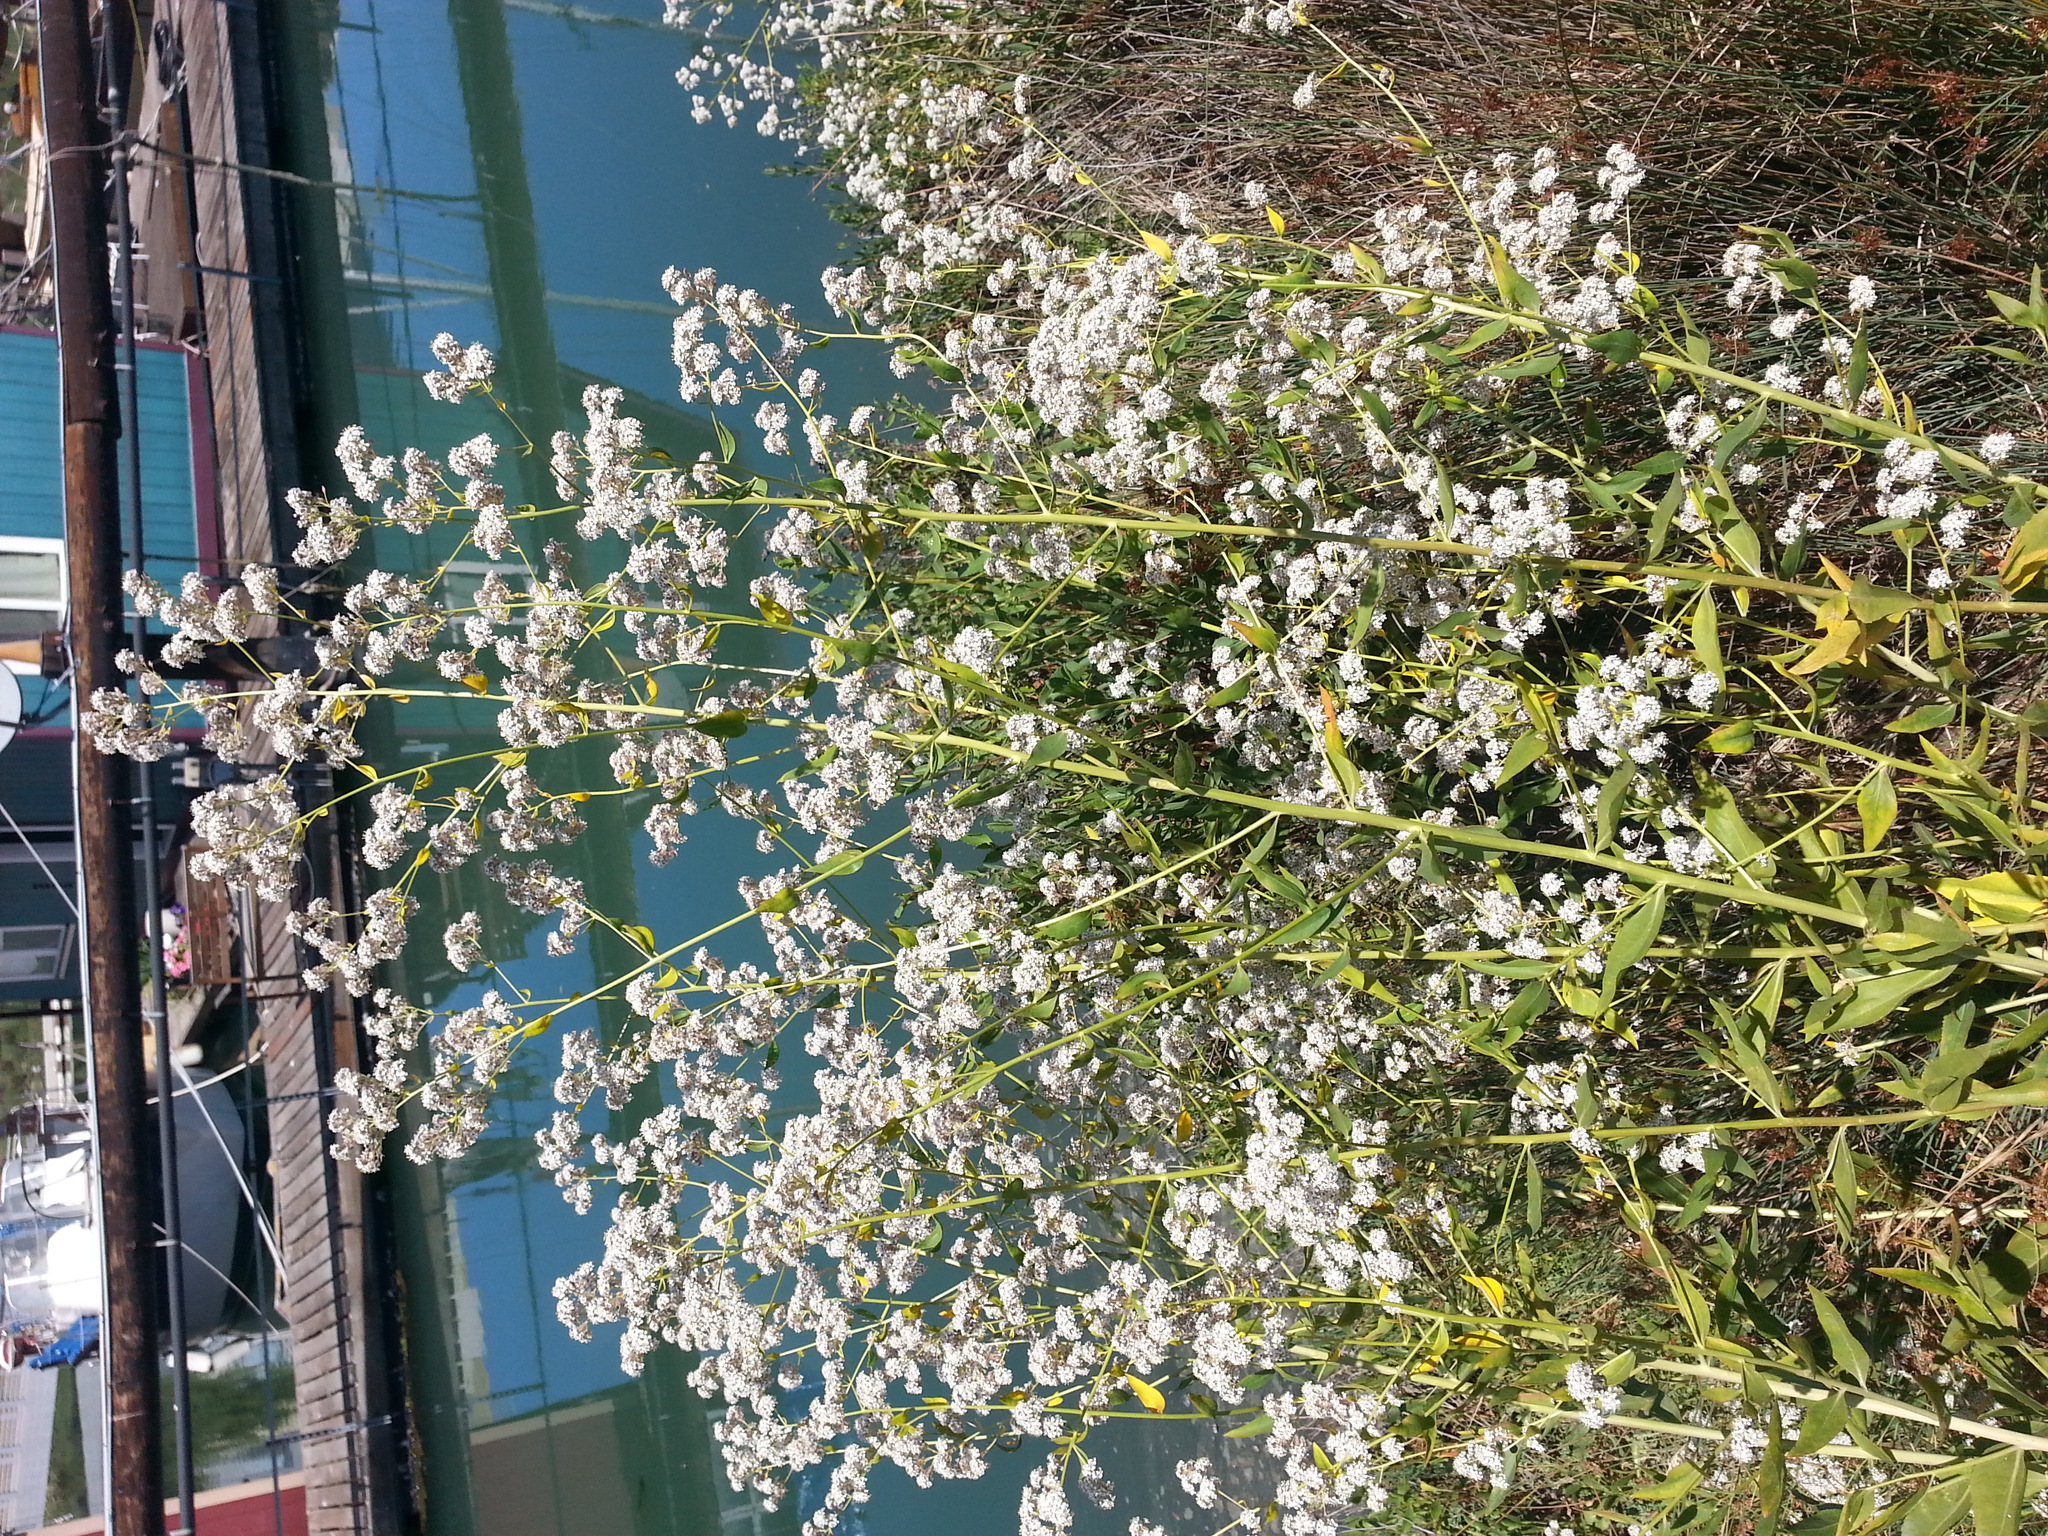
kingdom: Plantae
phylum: Tracheophyta
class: Magnoliopsida
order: Brassicales
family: Brassicaceae
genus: Lepidium
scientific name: Lepidium latifolium
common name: Dittander
